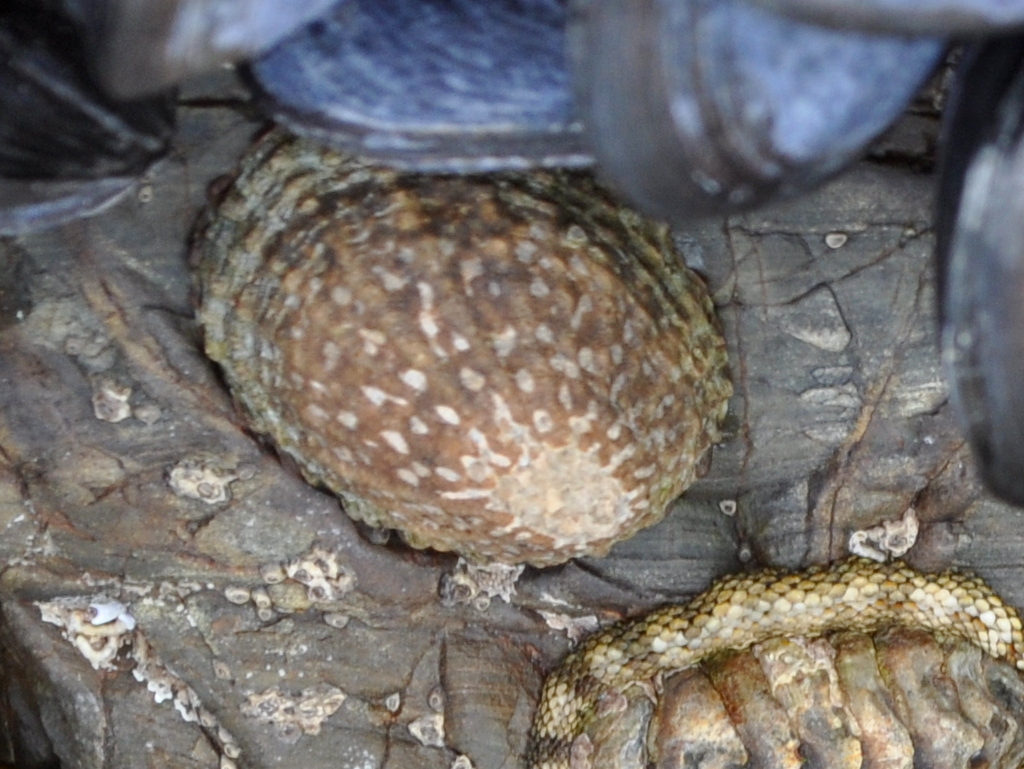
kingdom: Animalia
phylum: Mollusca
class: Gastropoda
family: Nacellidae
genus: Cellana
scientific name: Cellana denticulata
